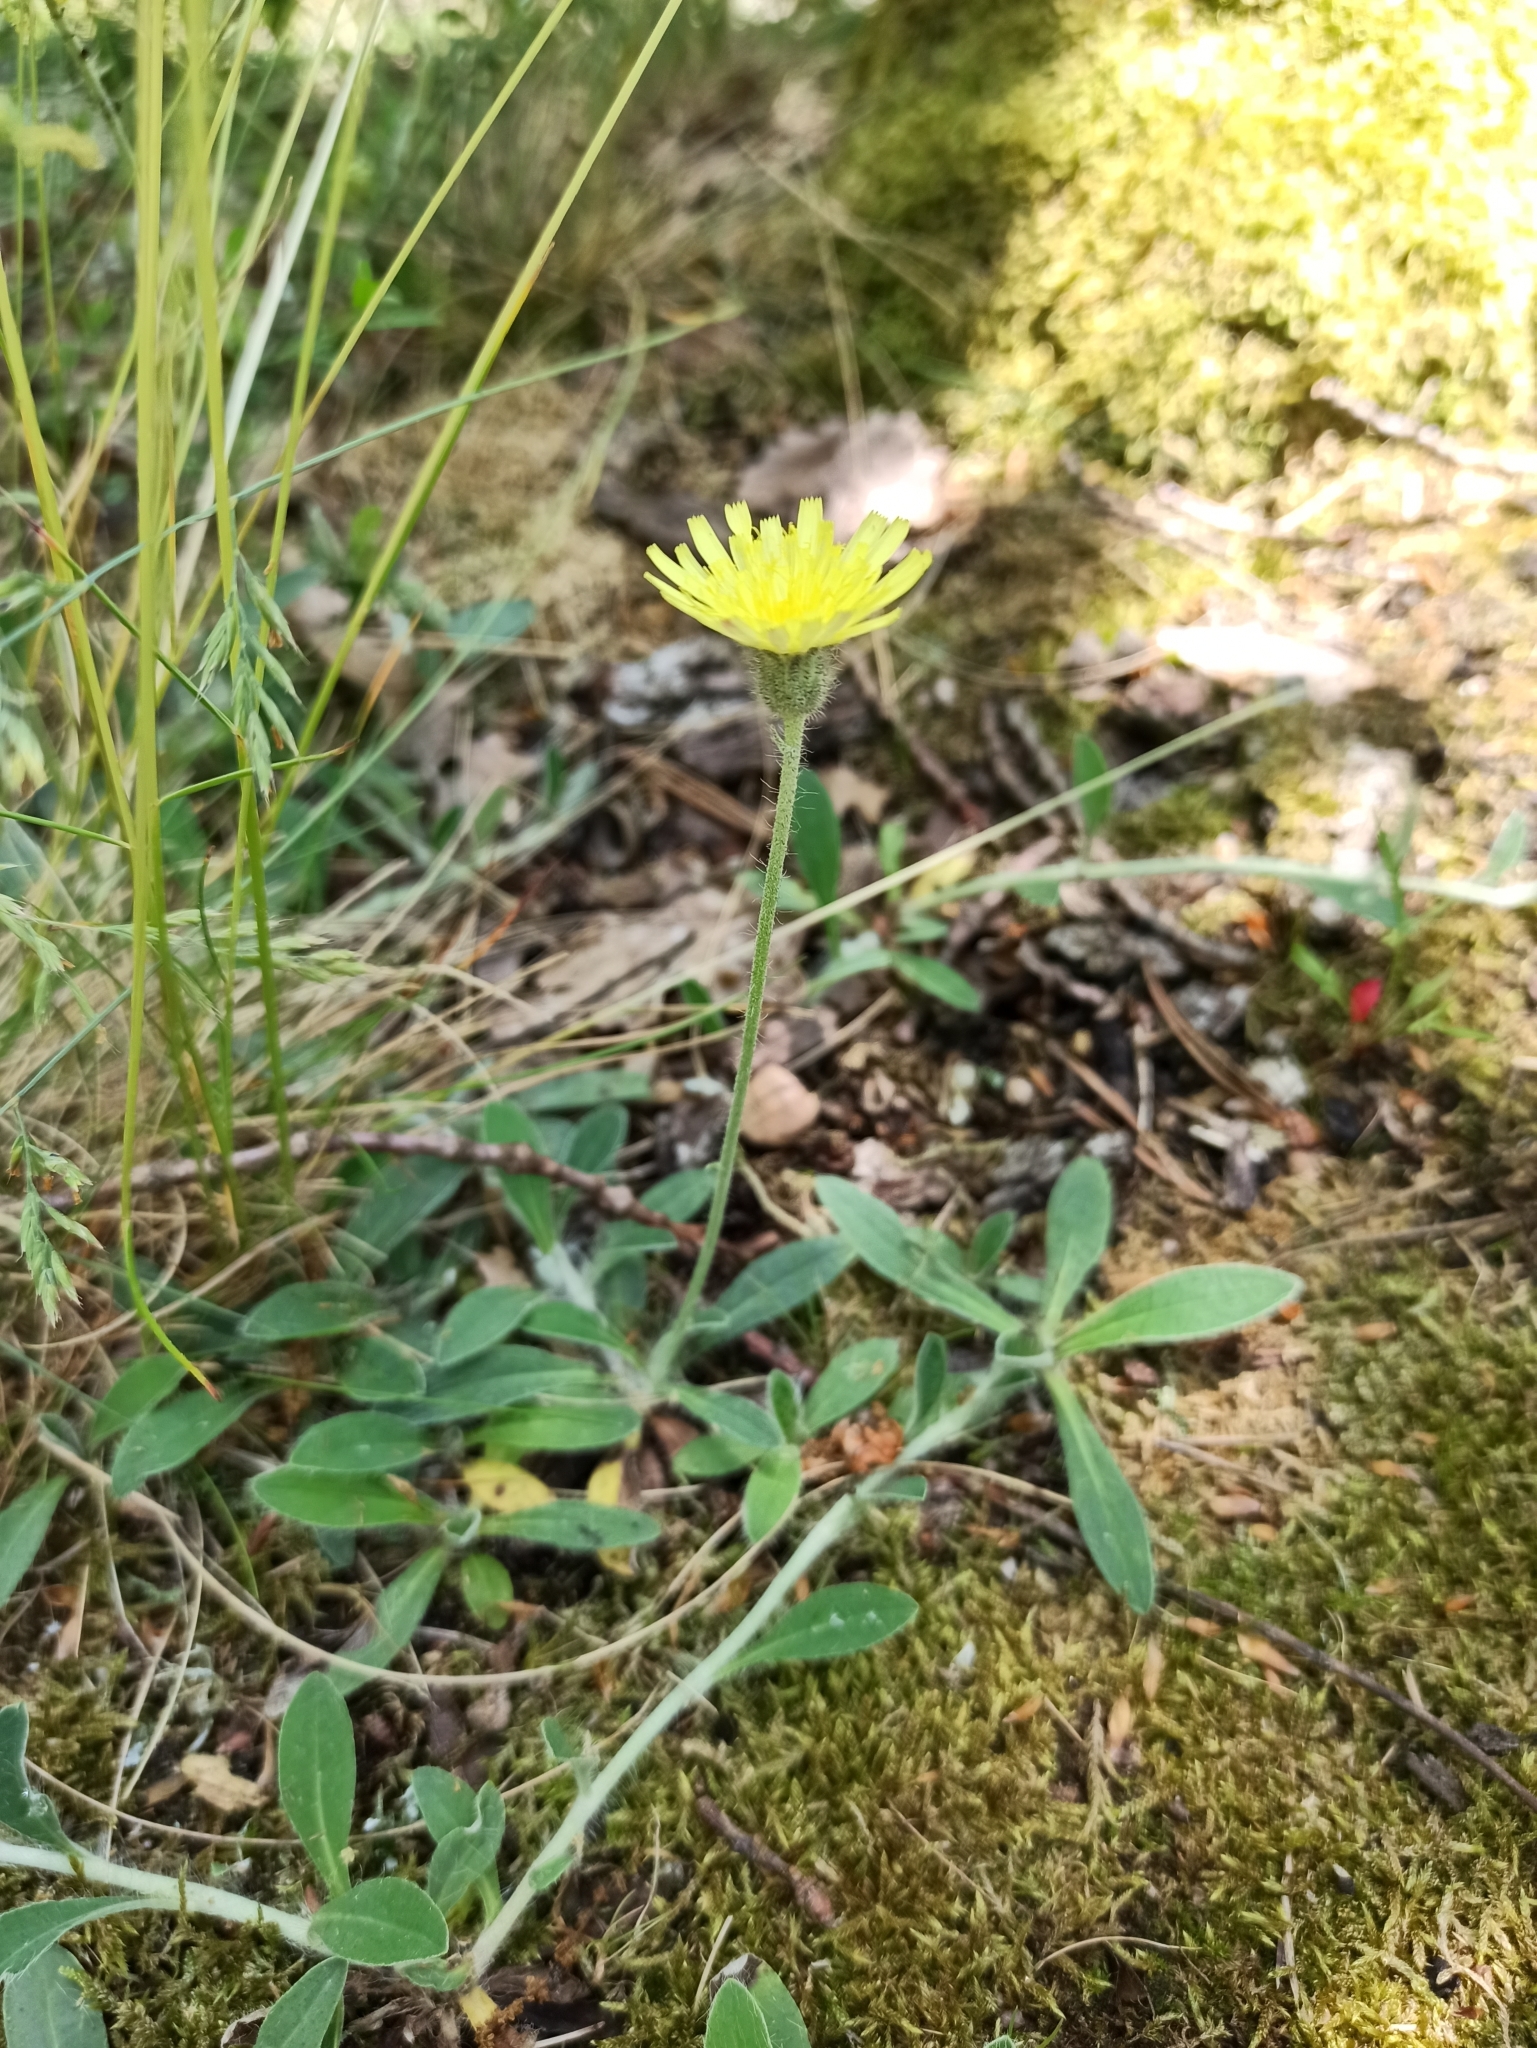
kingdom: Plantae
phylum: Tracheophyta
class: Magnoliopsida
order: Asterales
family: Asteraceae
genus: Pilosella
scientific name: Pilosella officinarum
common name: Mouse-ear hawkweed
